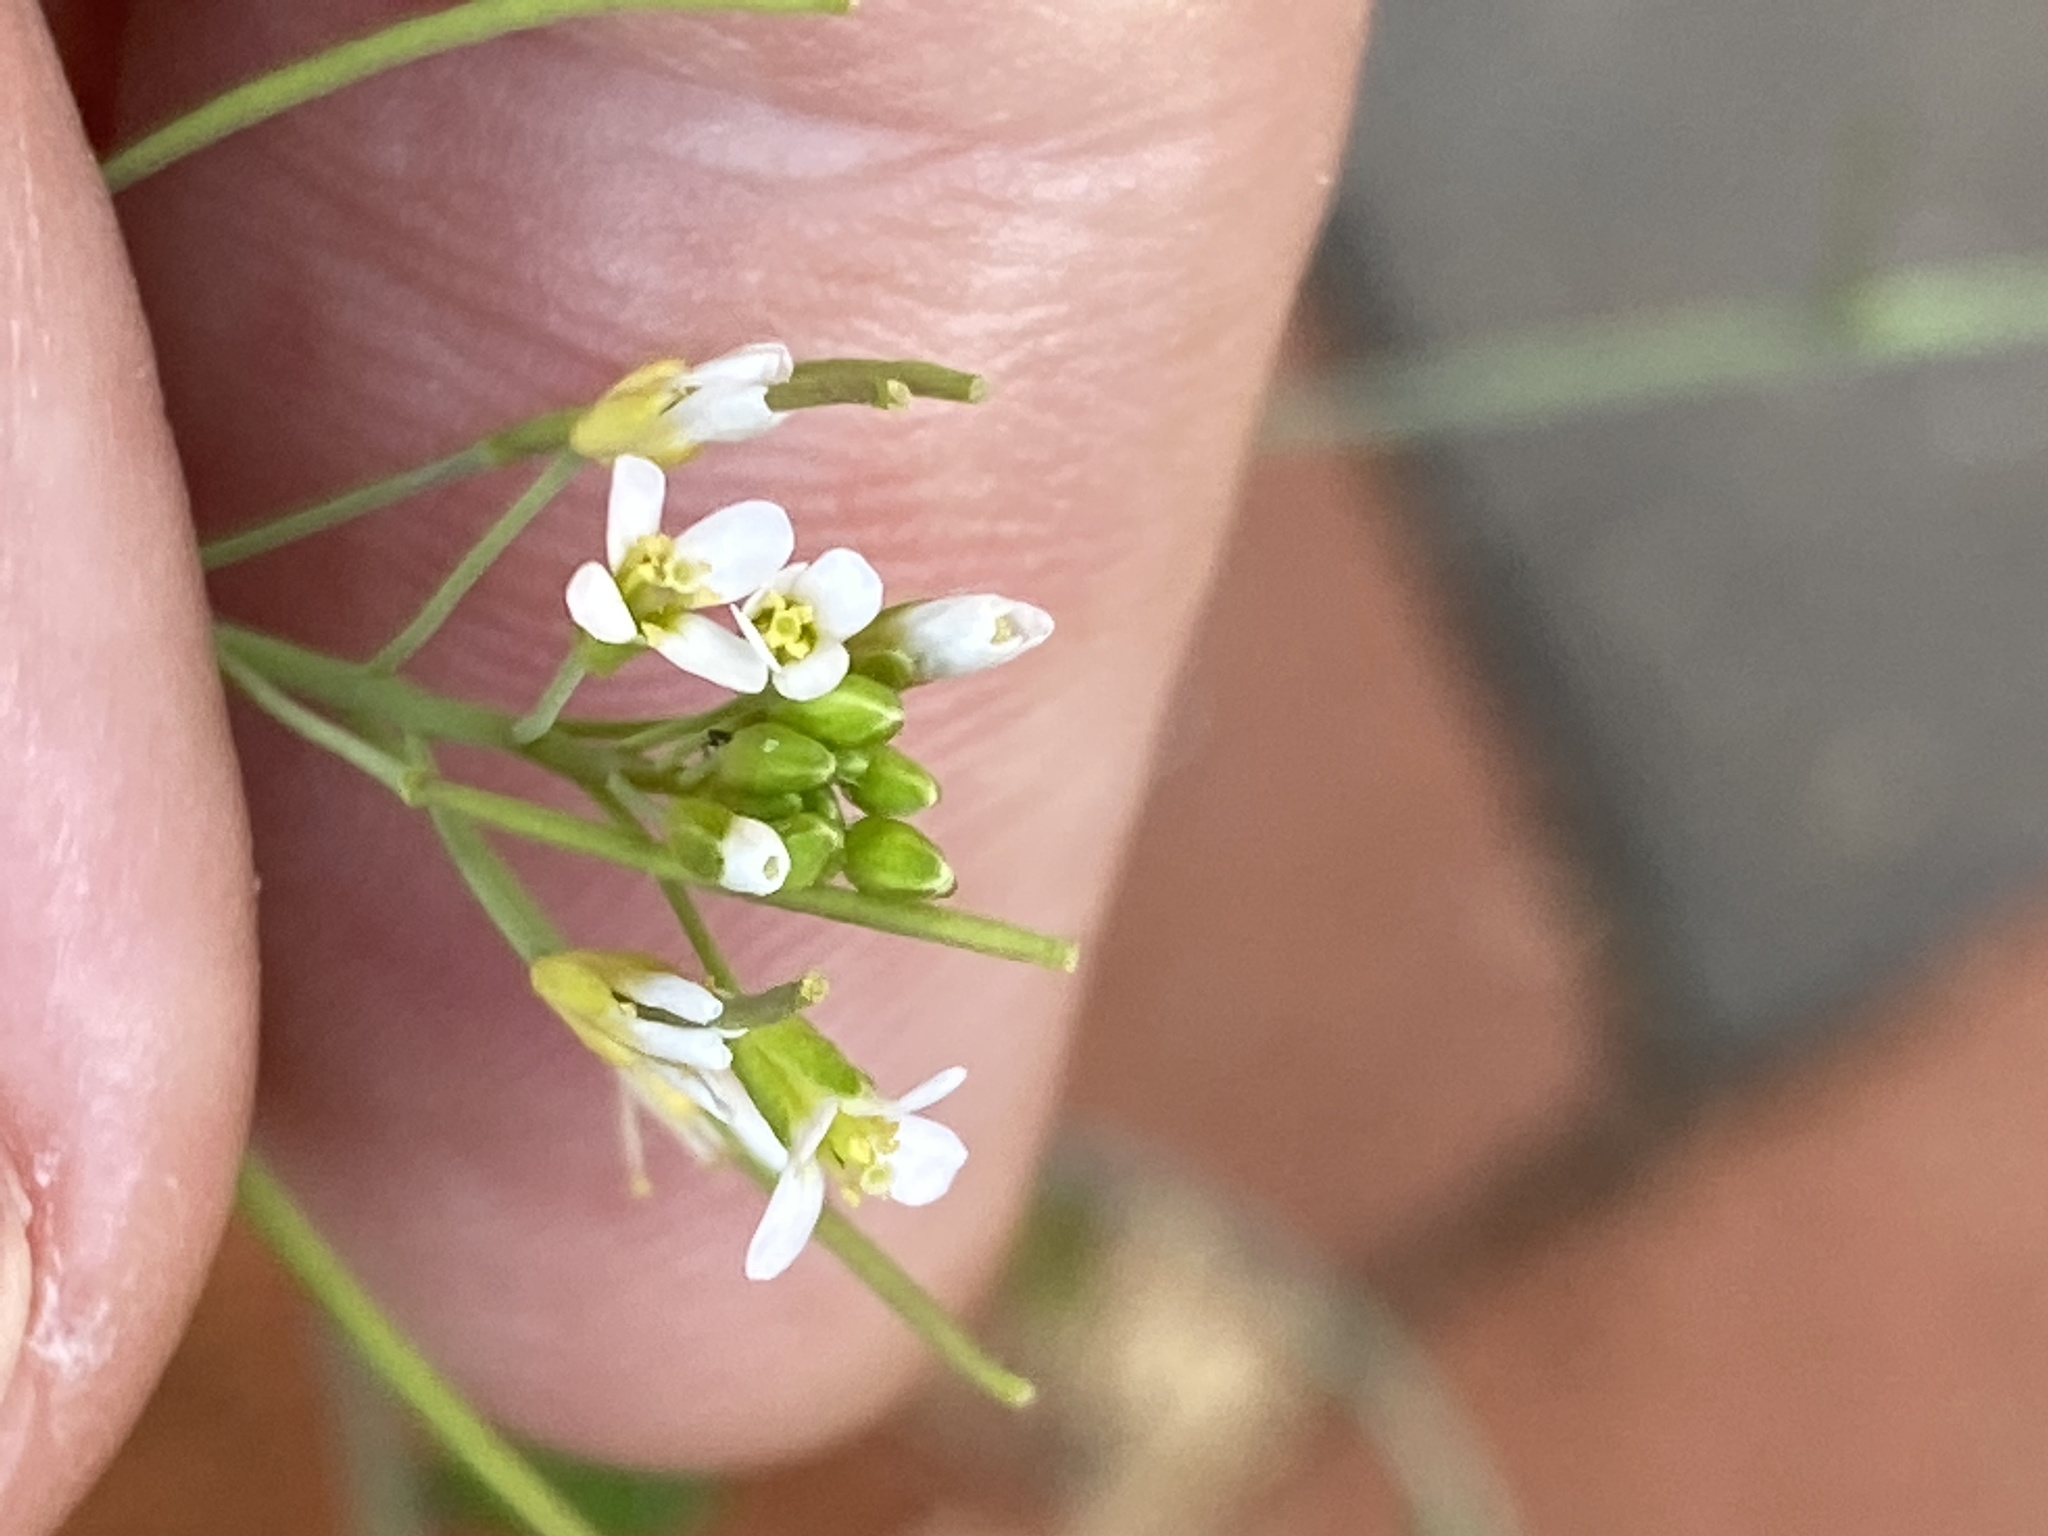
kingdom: Plantae
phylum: Tracheophyta
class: Magnoliopsida
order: Brassicales
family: Brassicaceae
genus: Arabidopsis
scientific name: Arabidopsis thaliana
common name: Thale cress
